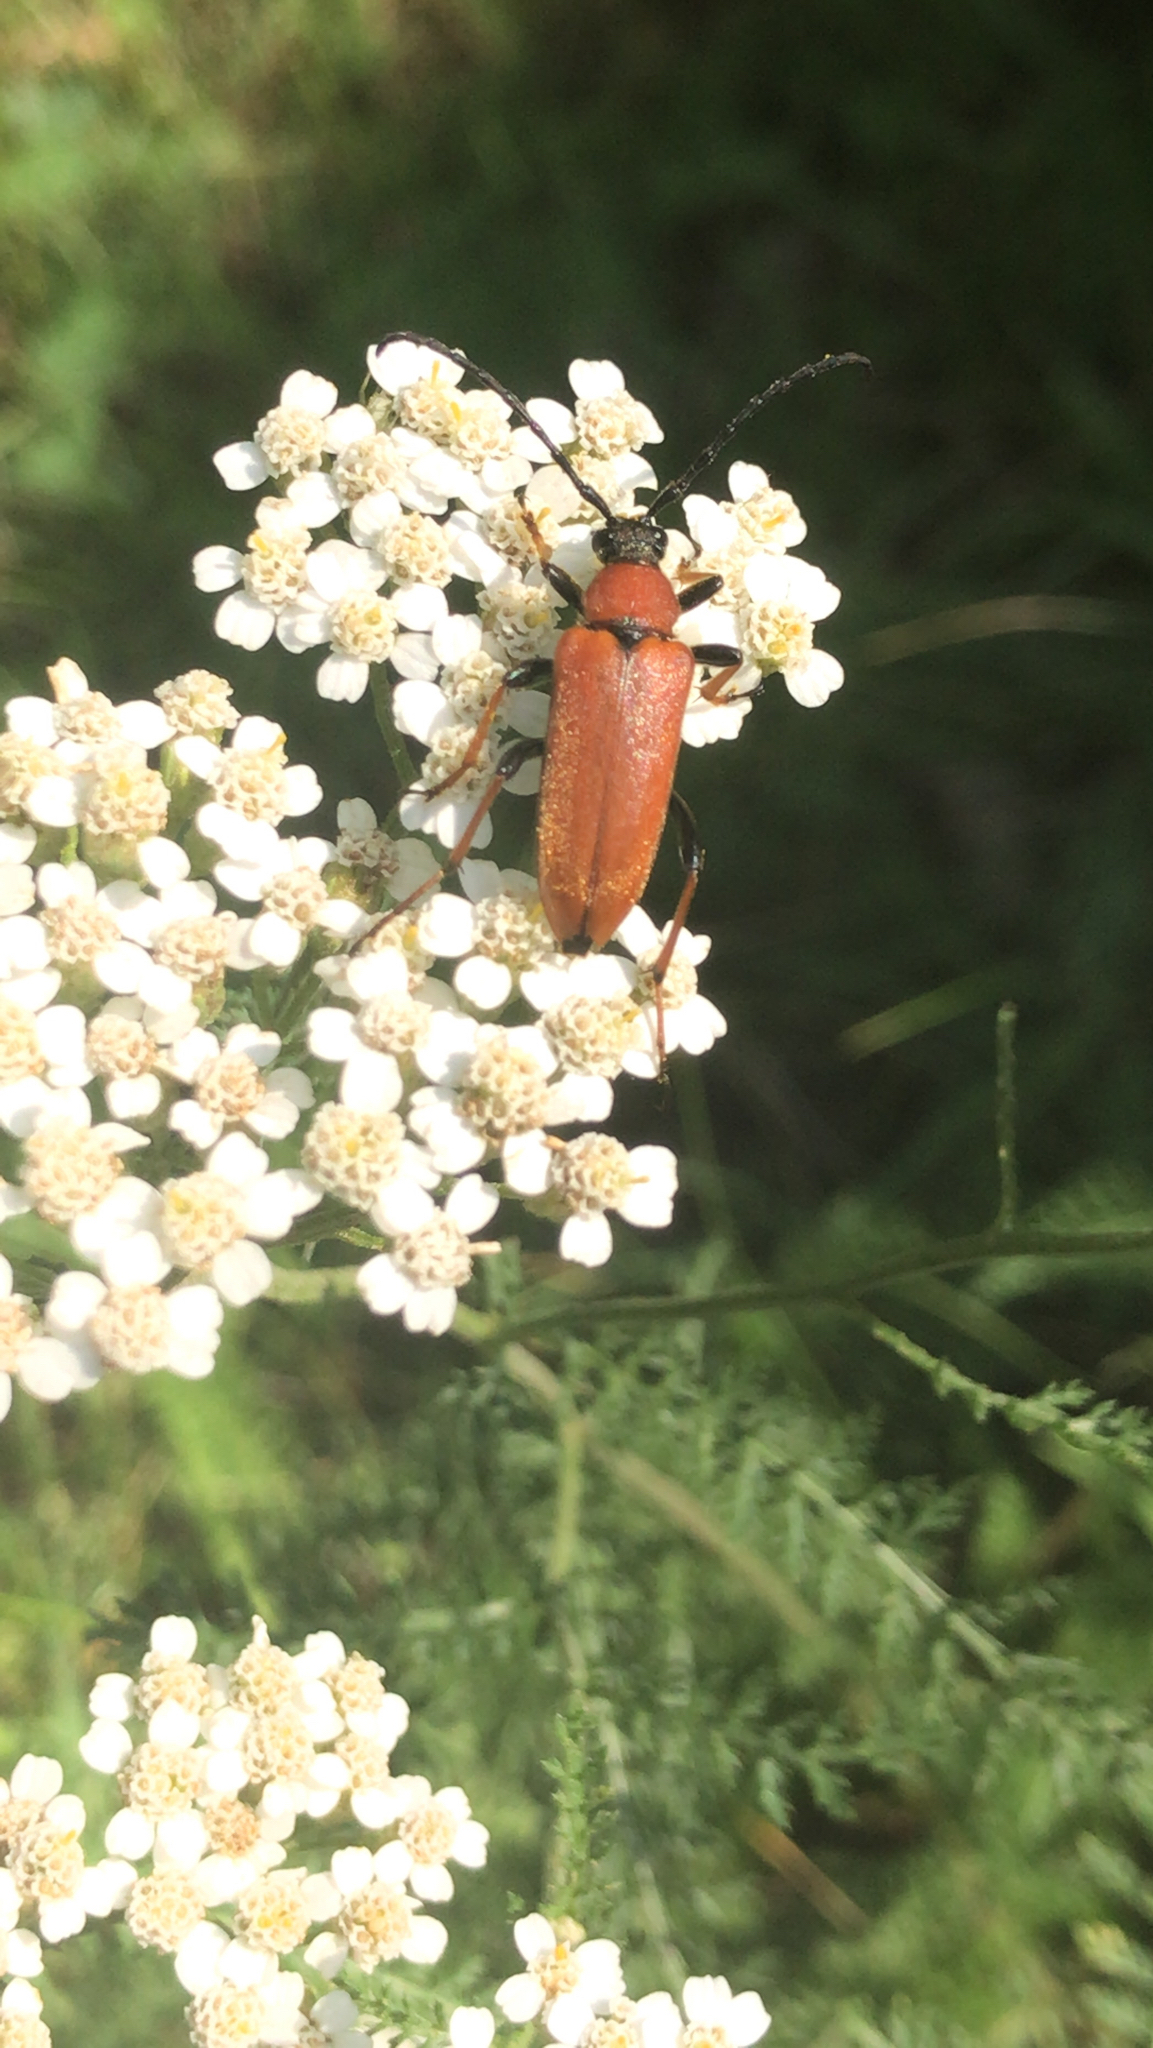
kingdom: Animalia
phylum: Arthropoda
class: Insecta
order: Coleoptera
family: Cerambycidae
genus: Stictoleptura
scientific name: Stictoleptura rubra
